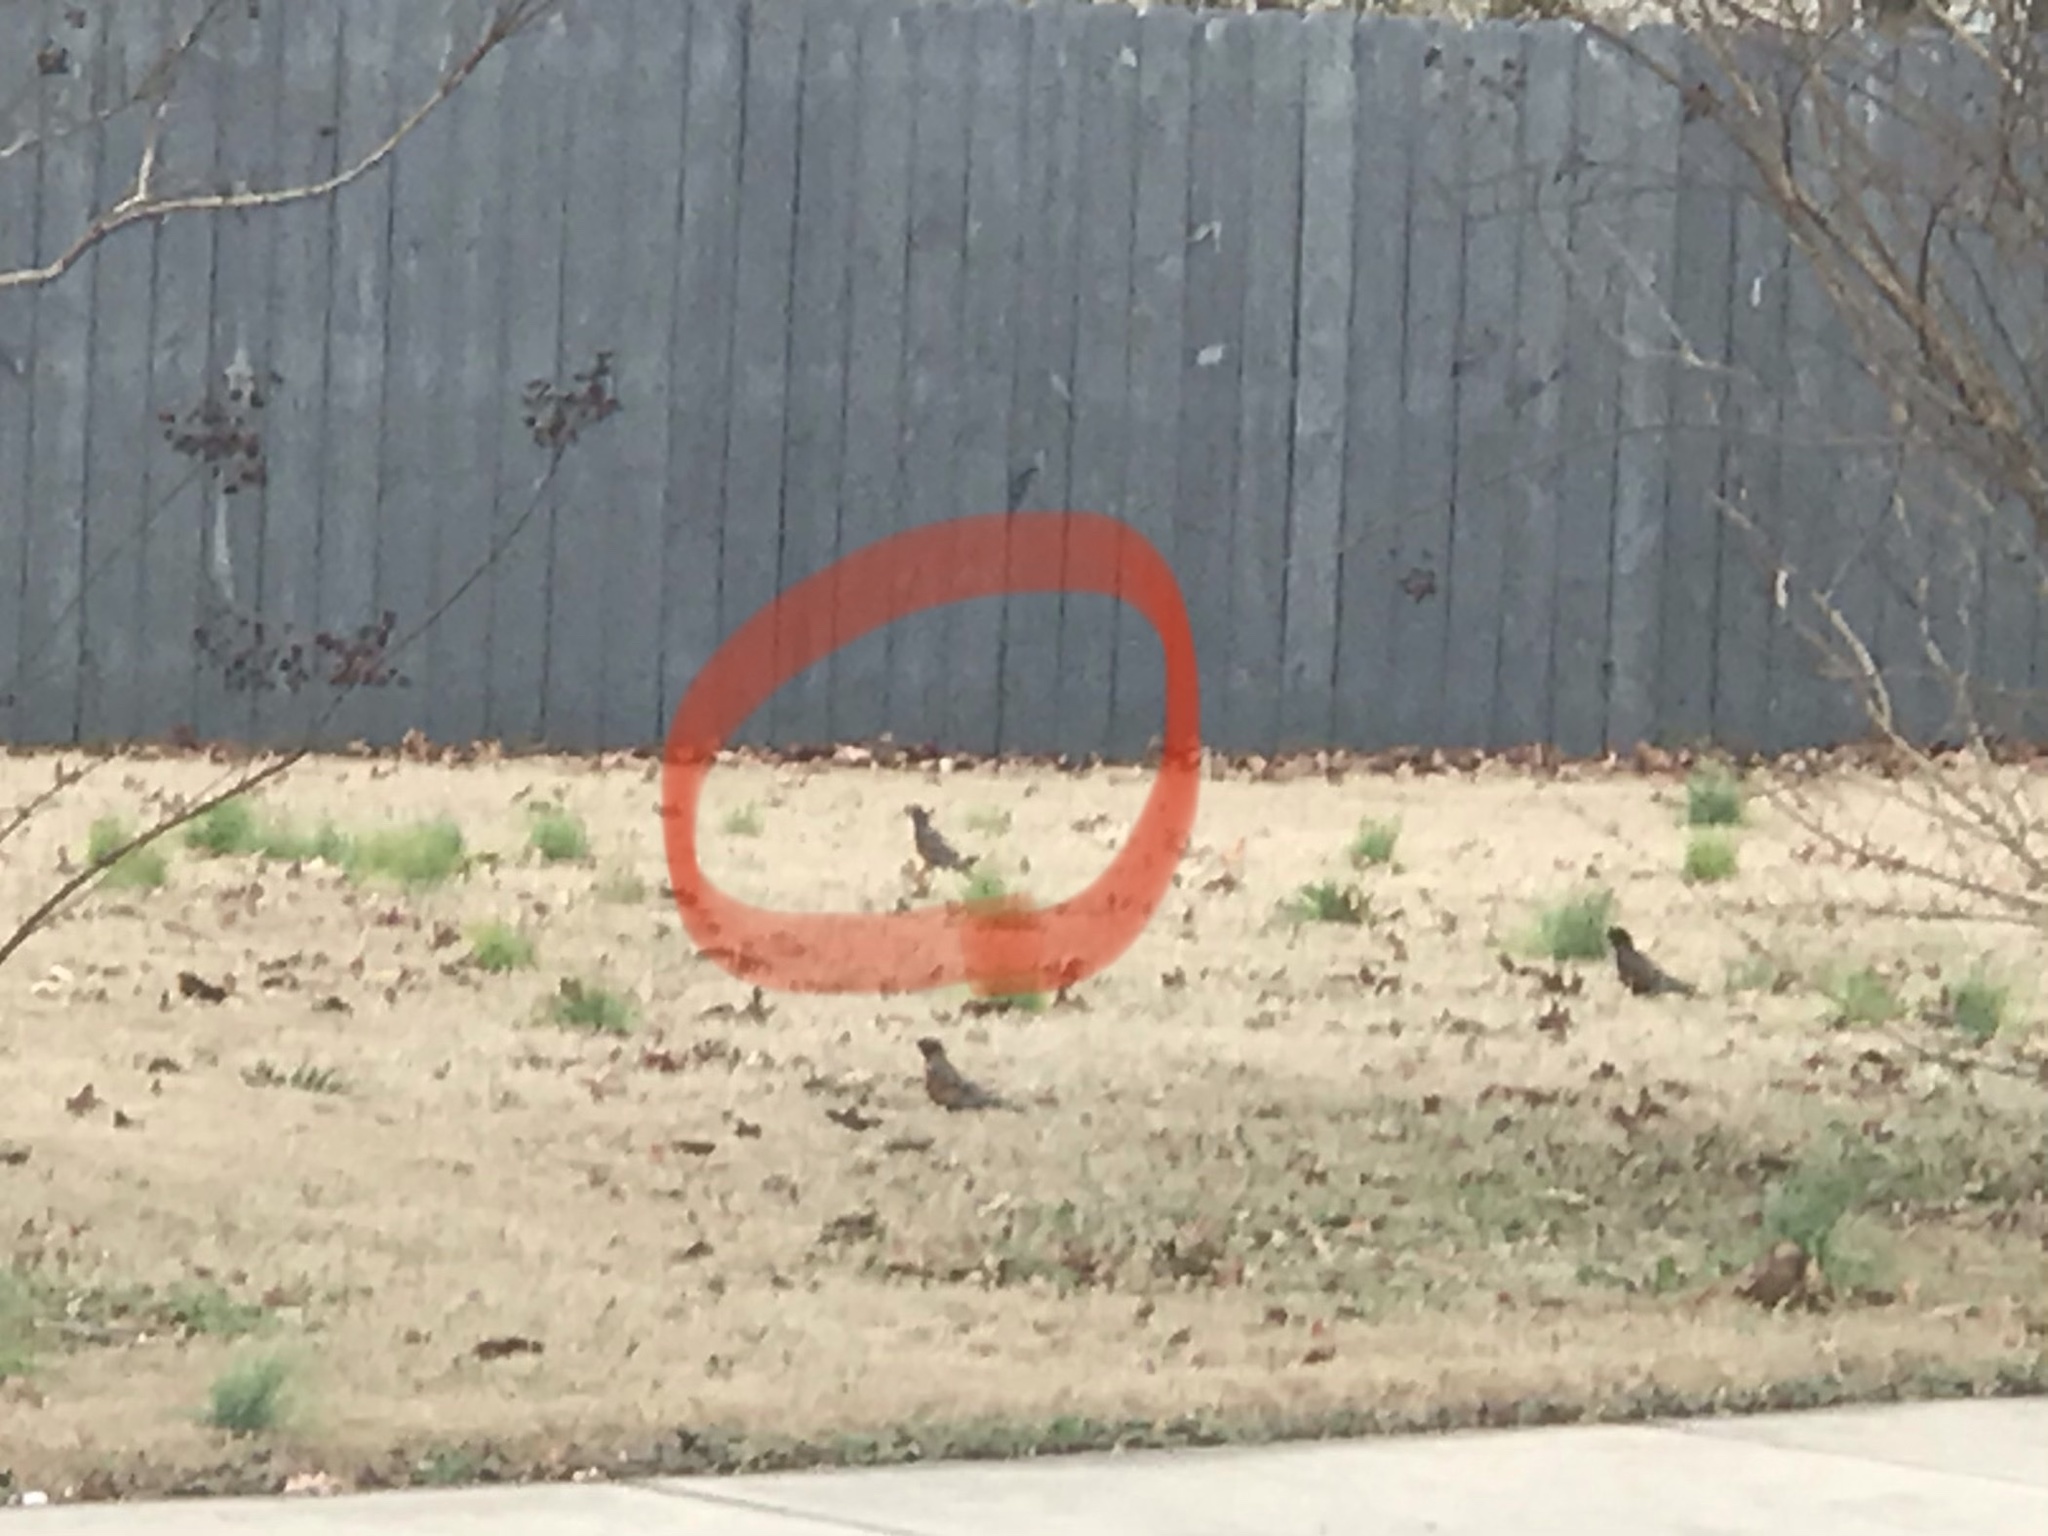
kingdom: Animalia
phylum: Chordata
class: Aves
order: Passeriformes
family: Turdidae
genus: Turdus
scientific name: Turdus migratorius
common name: American robin
